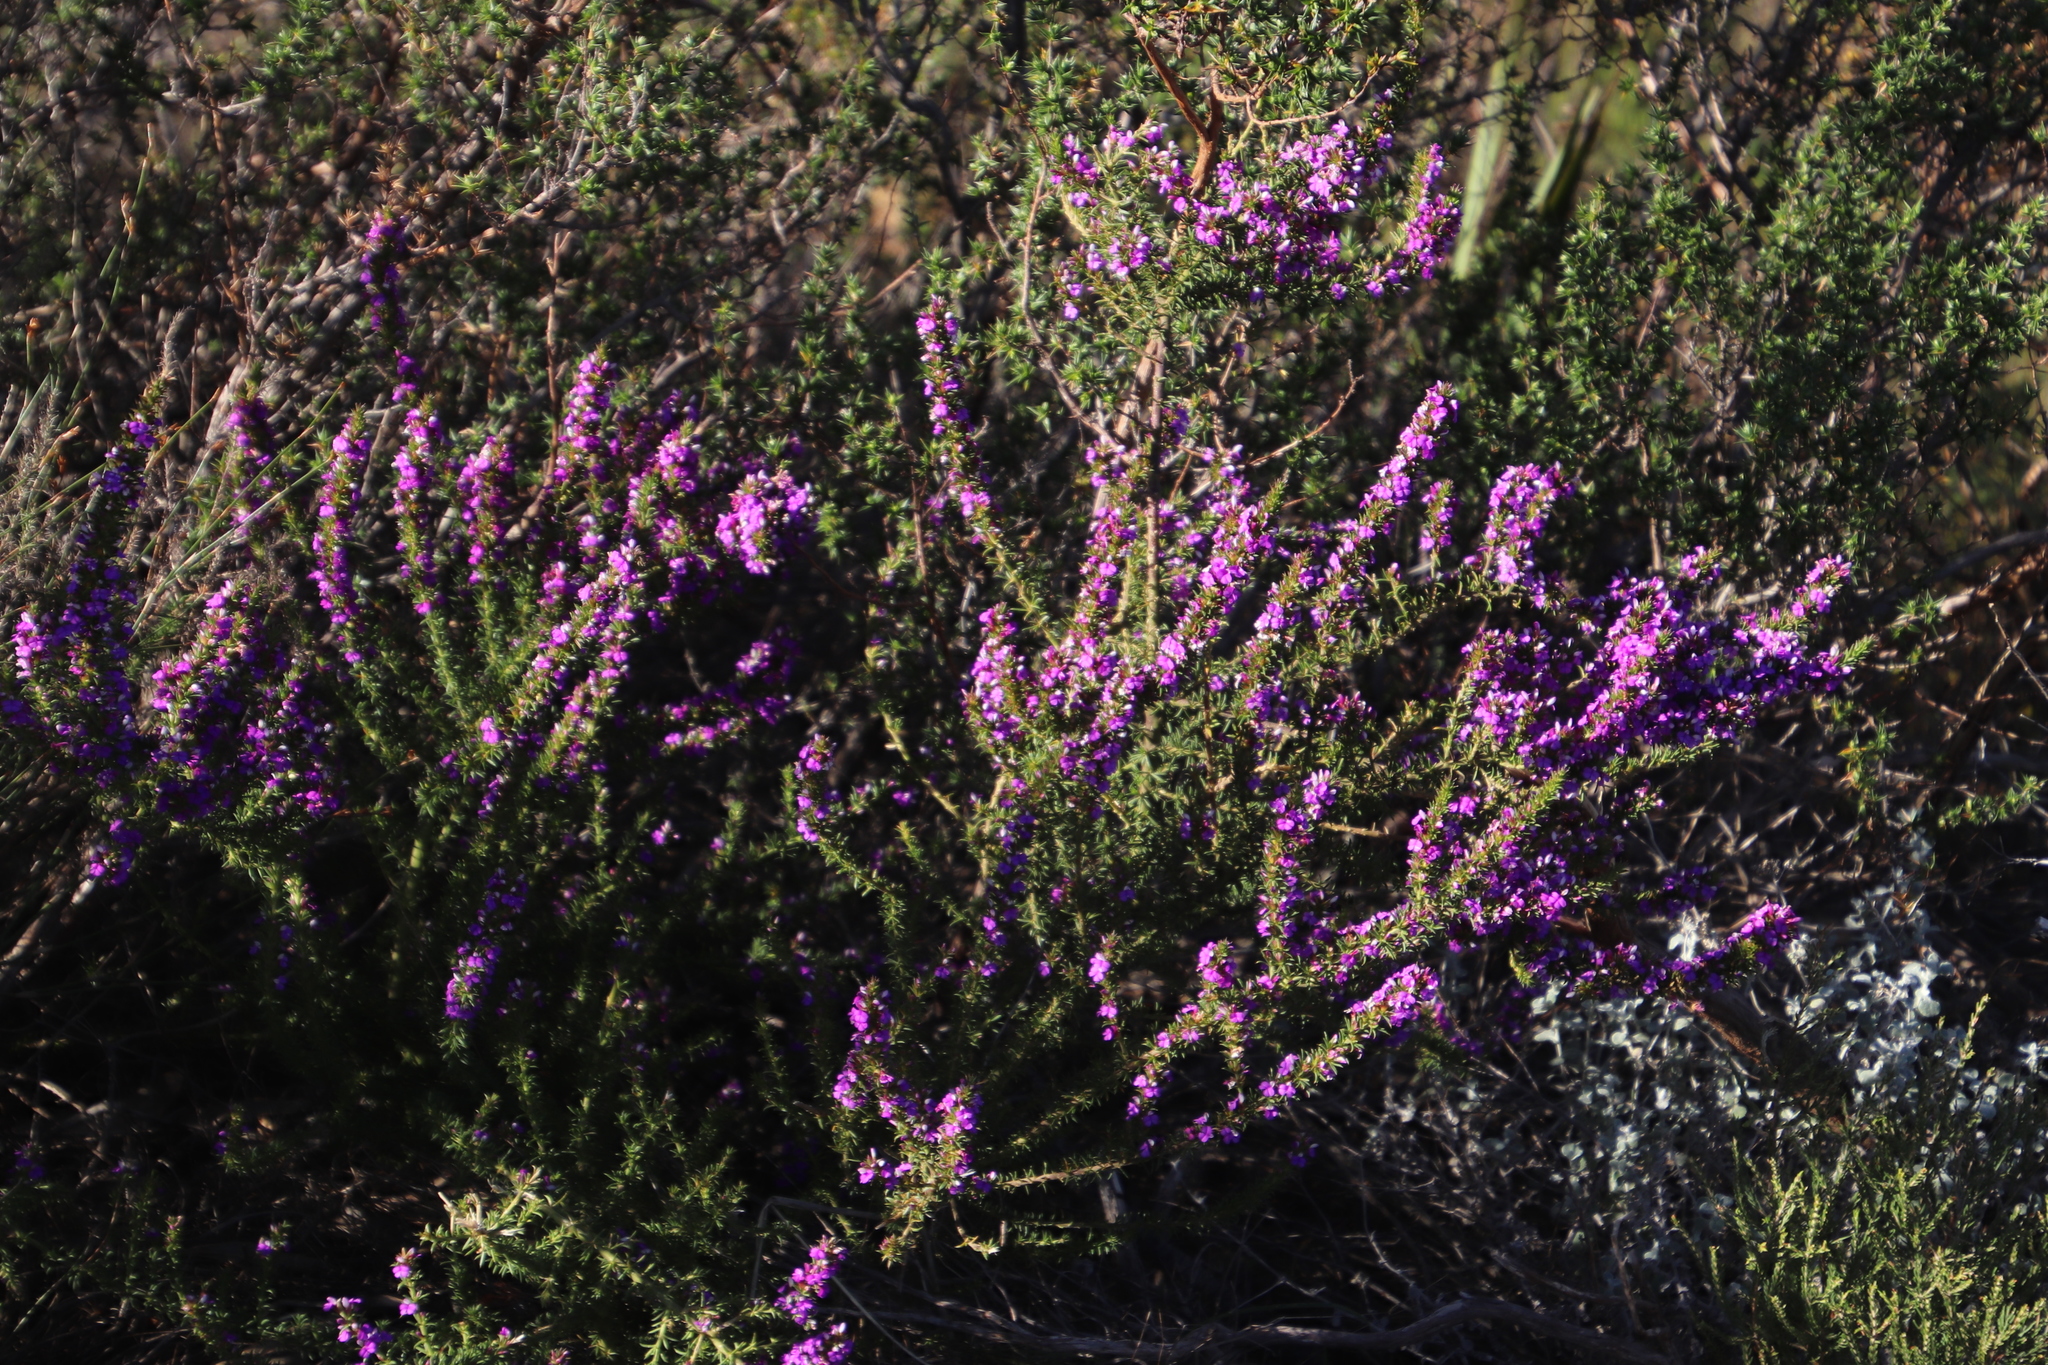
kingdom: Plantae
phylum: Tracheophyta
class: Magnoliopsida
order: Fabales
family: Polygalaceae
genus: Muraltia
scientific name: Muraltia heisteria
